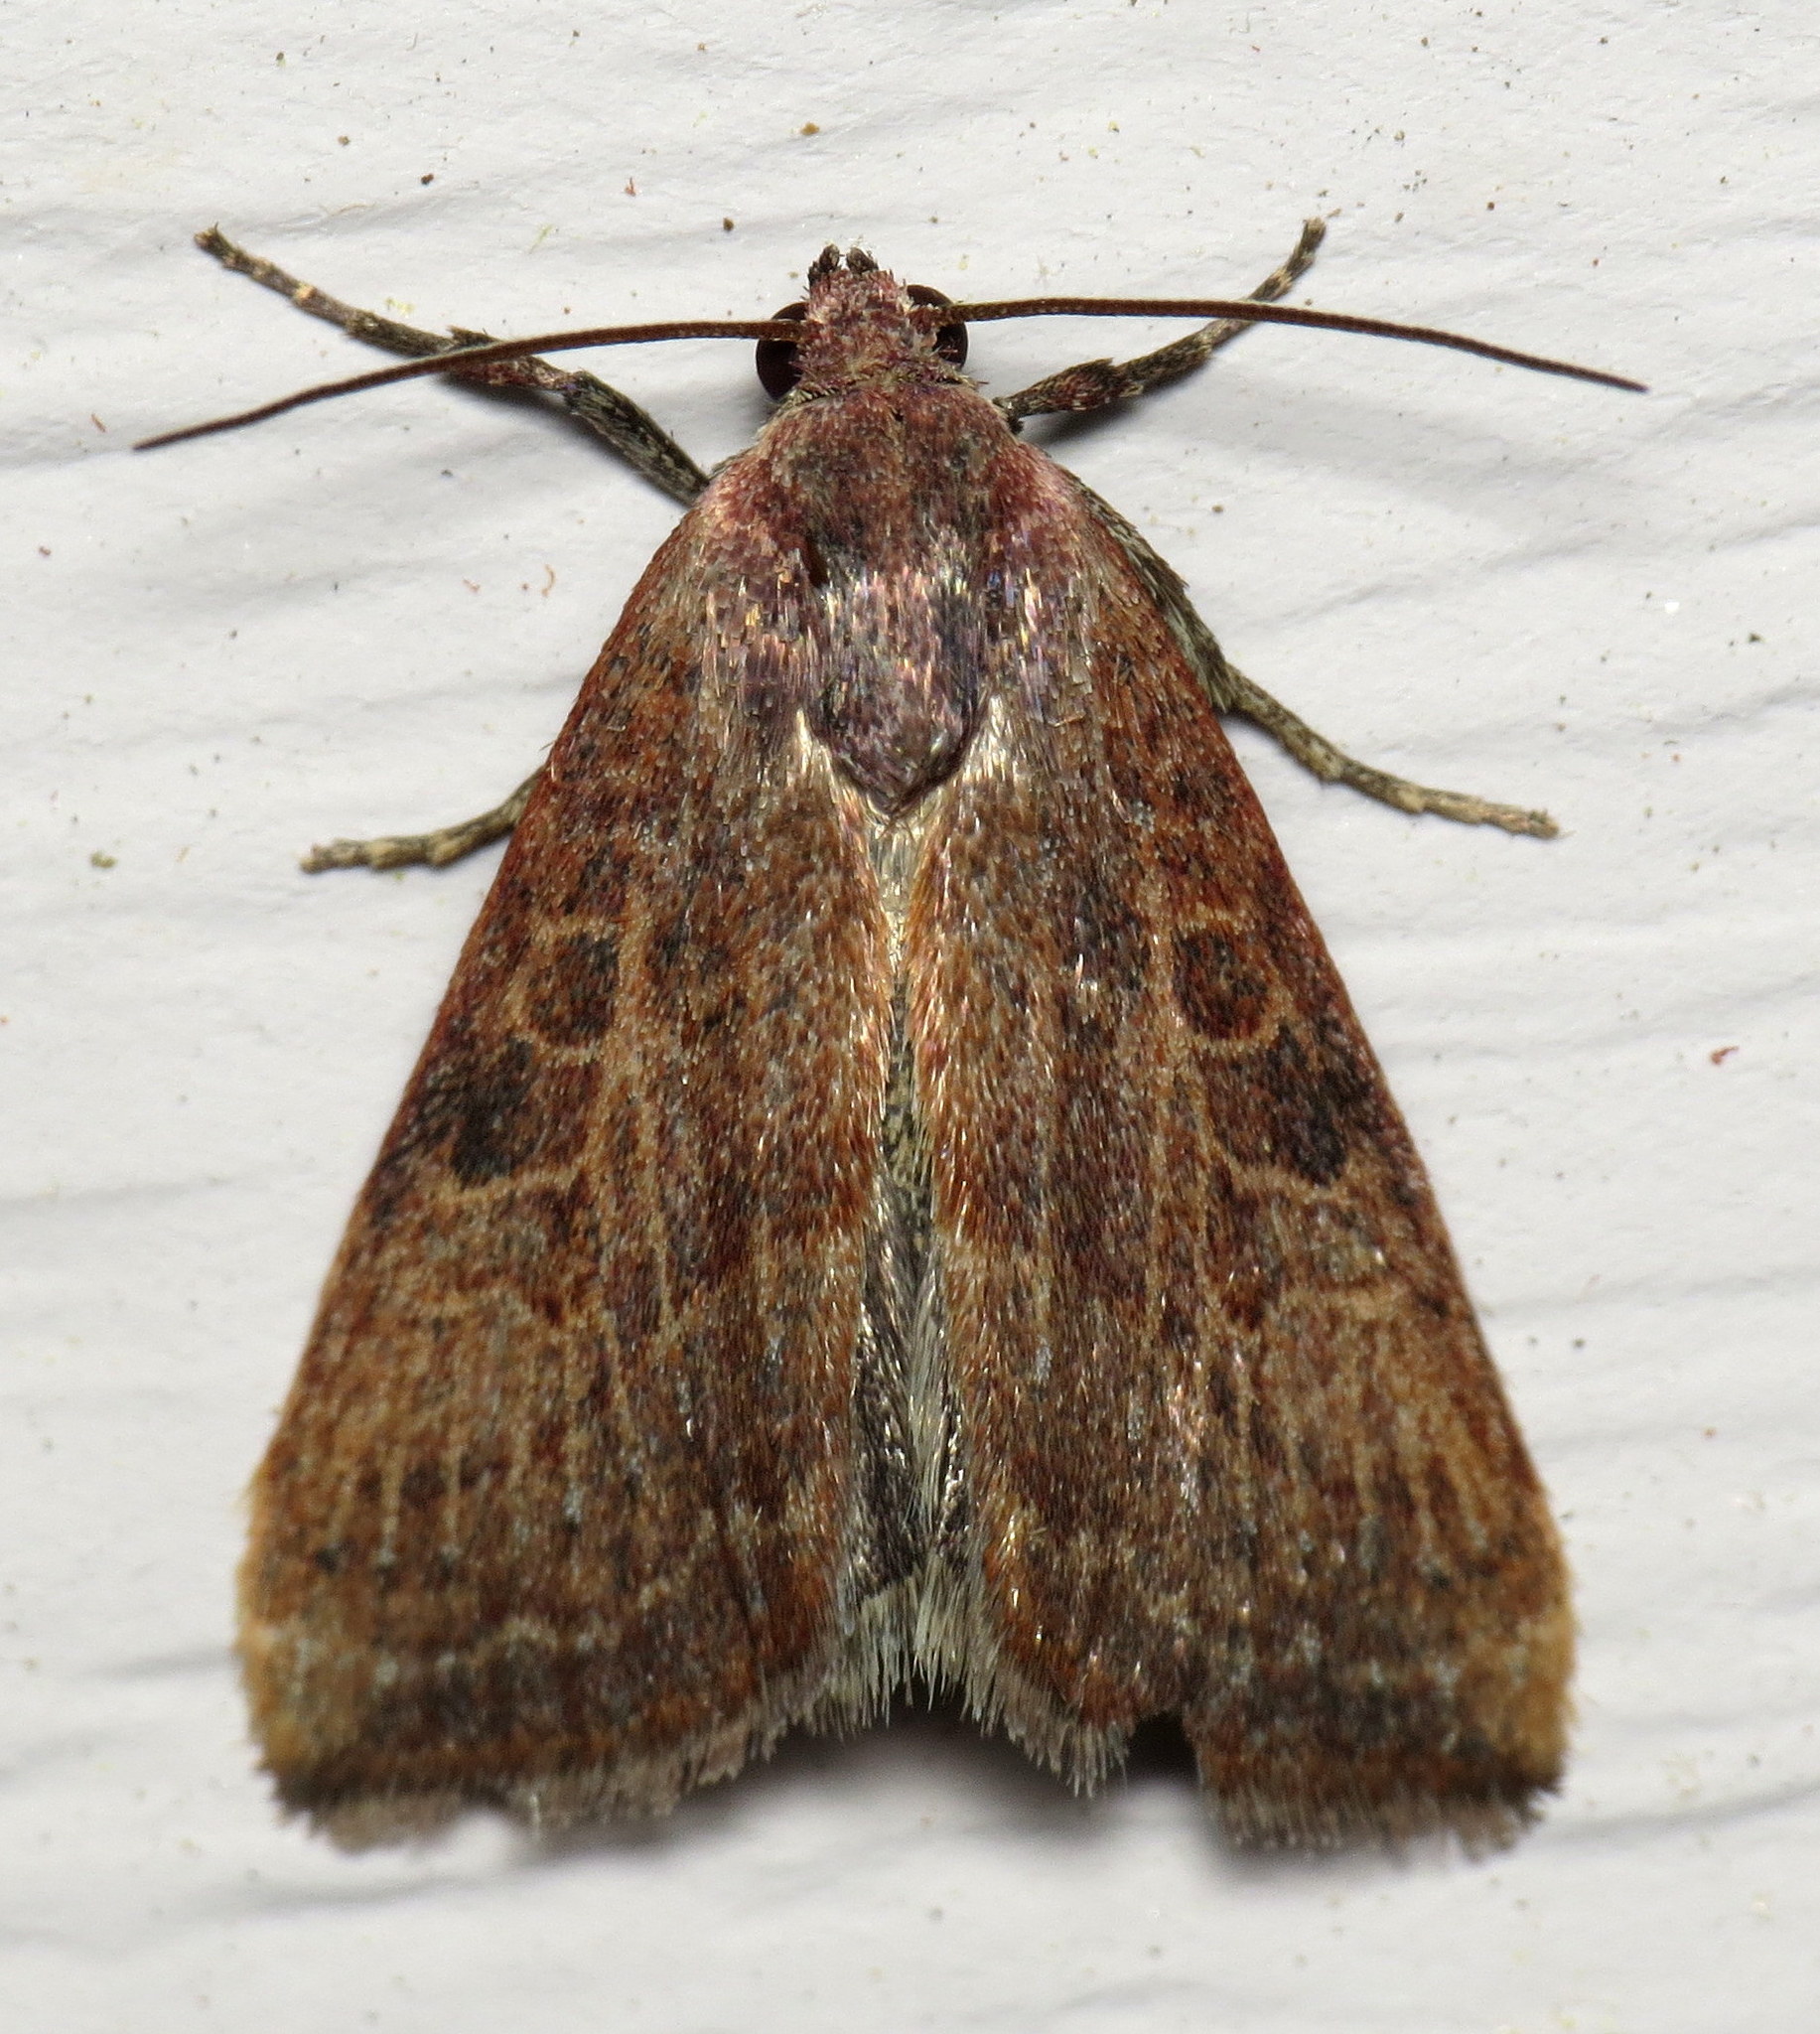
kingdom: Animalia
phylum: Arthropoda
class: Insecta
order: Lepidoptera
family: Noctuidae
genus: Galgula
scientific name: Galgula partita
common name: Wedgeling
